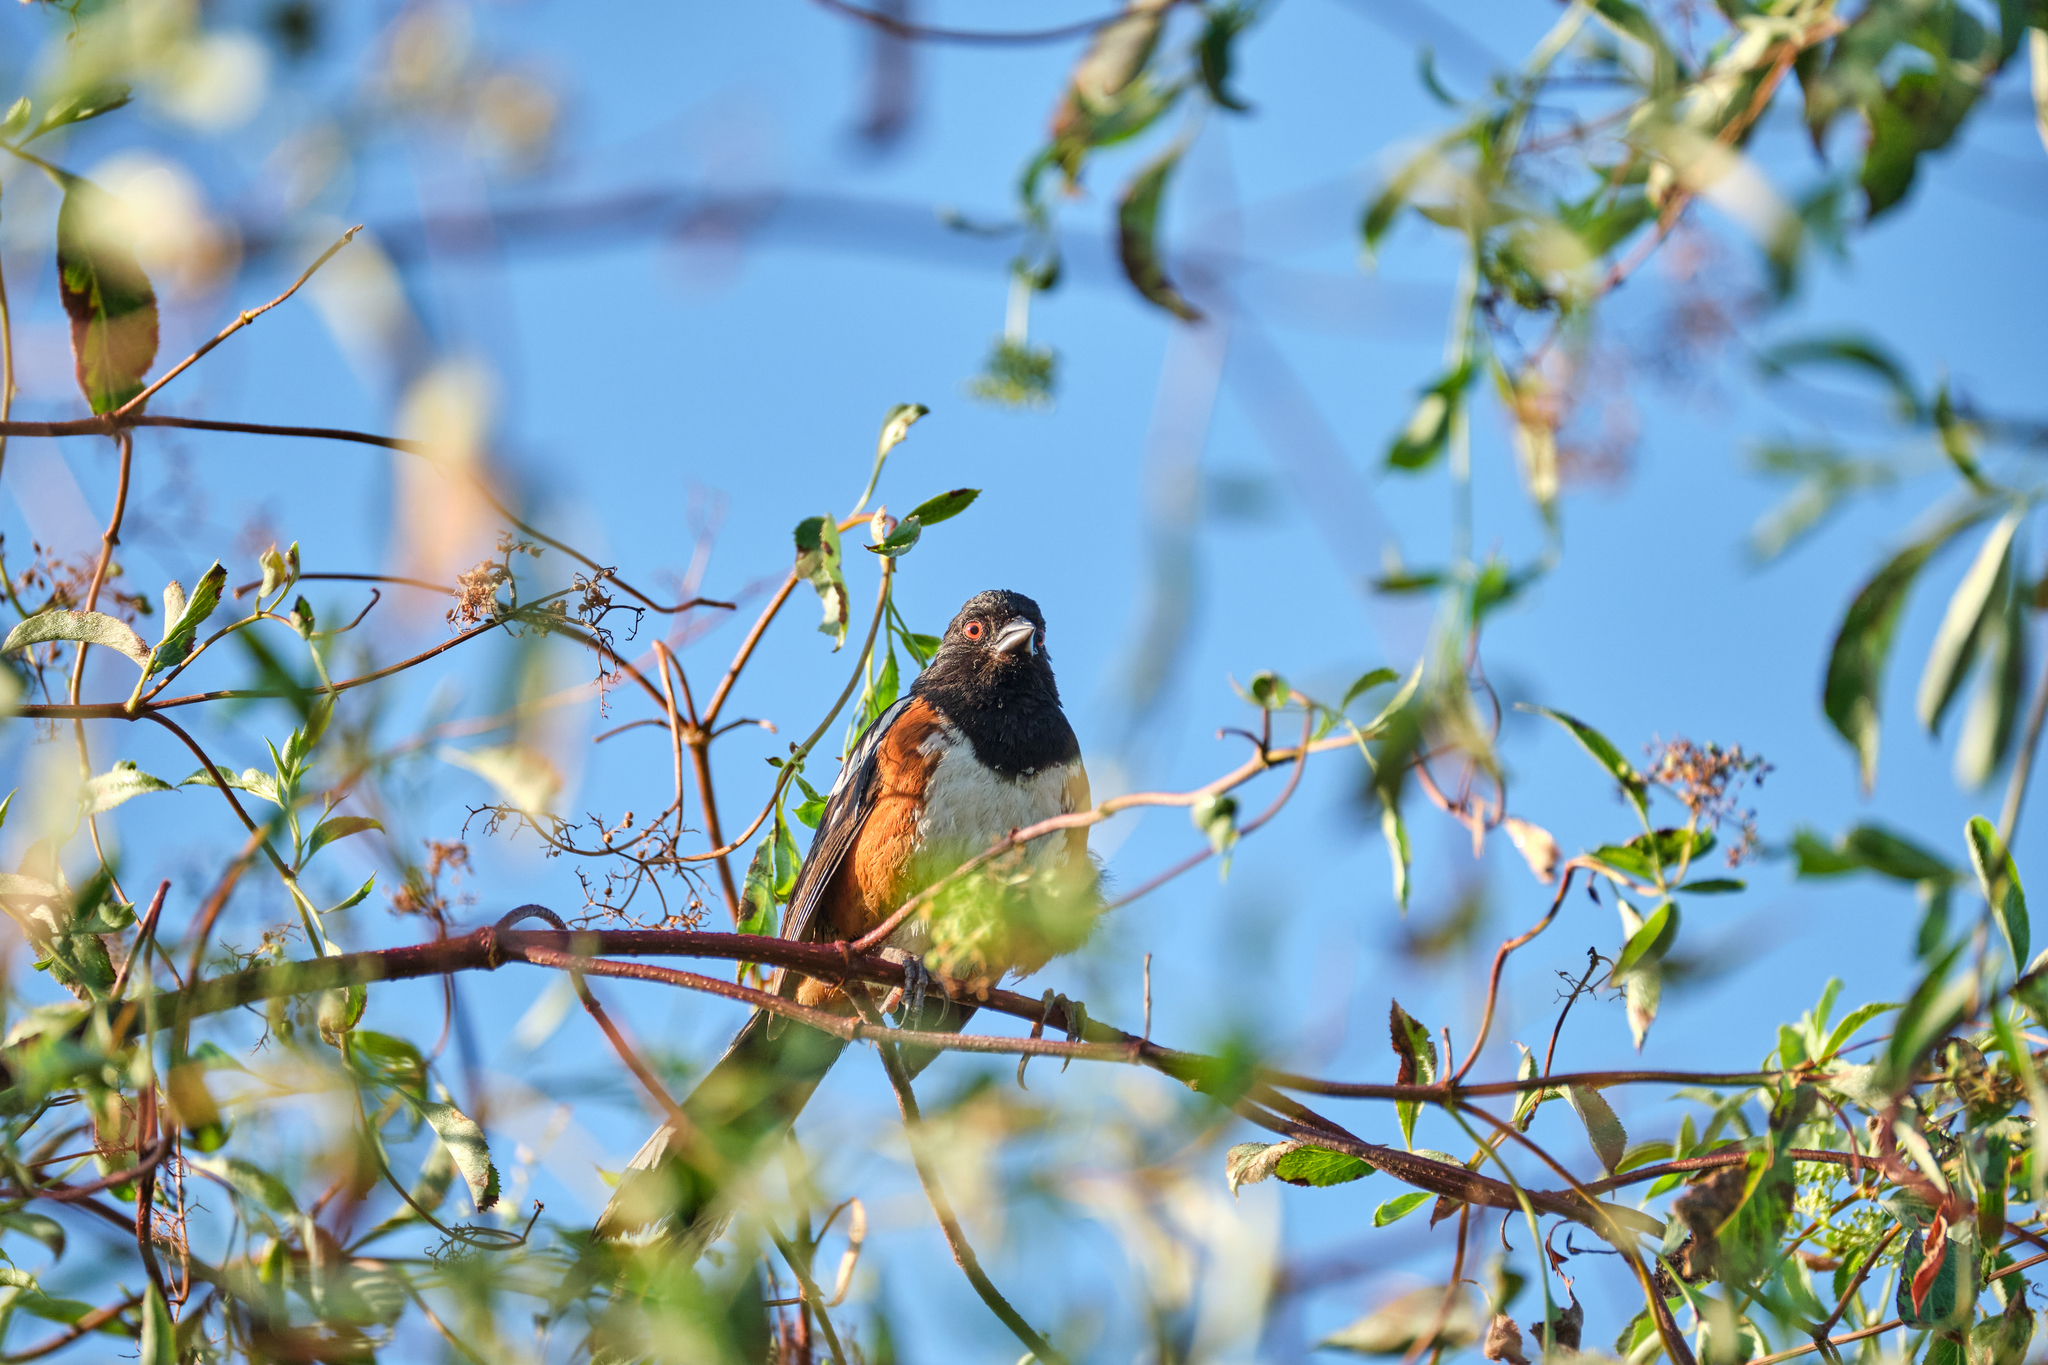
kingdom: Animalia
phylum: Chordata
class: Aves
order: Passeriformes
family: Passerellidae
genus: Pipilo
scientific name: Pipilo maculatus
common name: Spotted towhee
